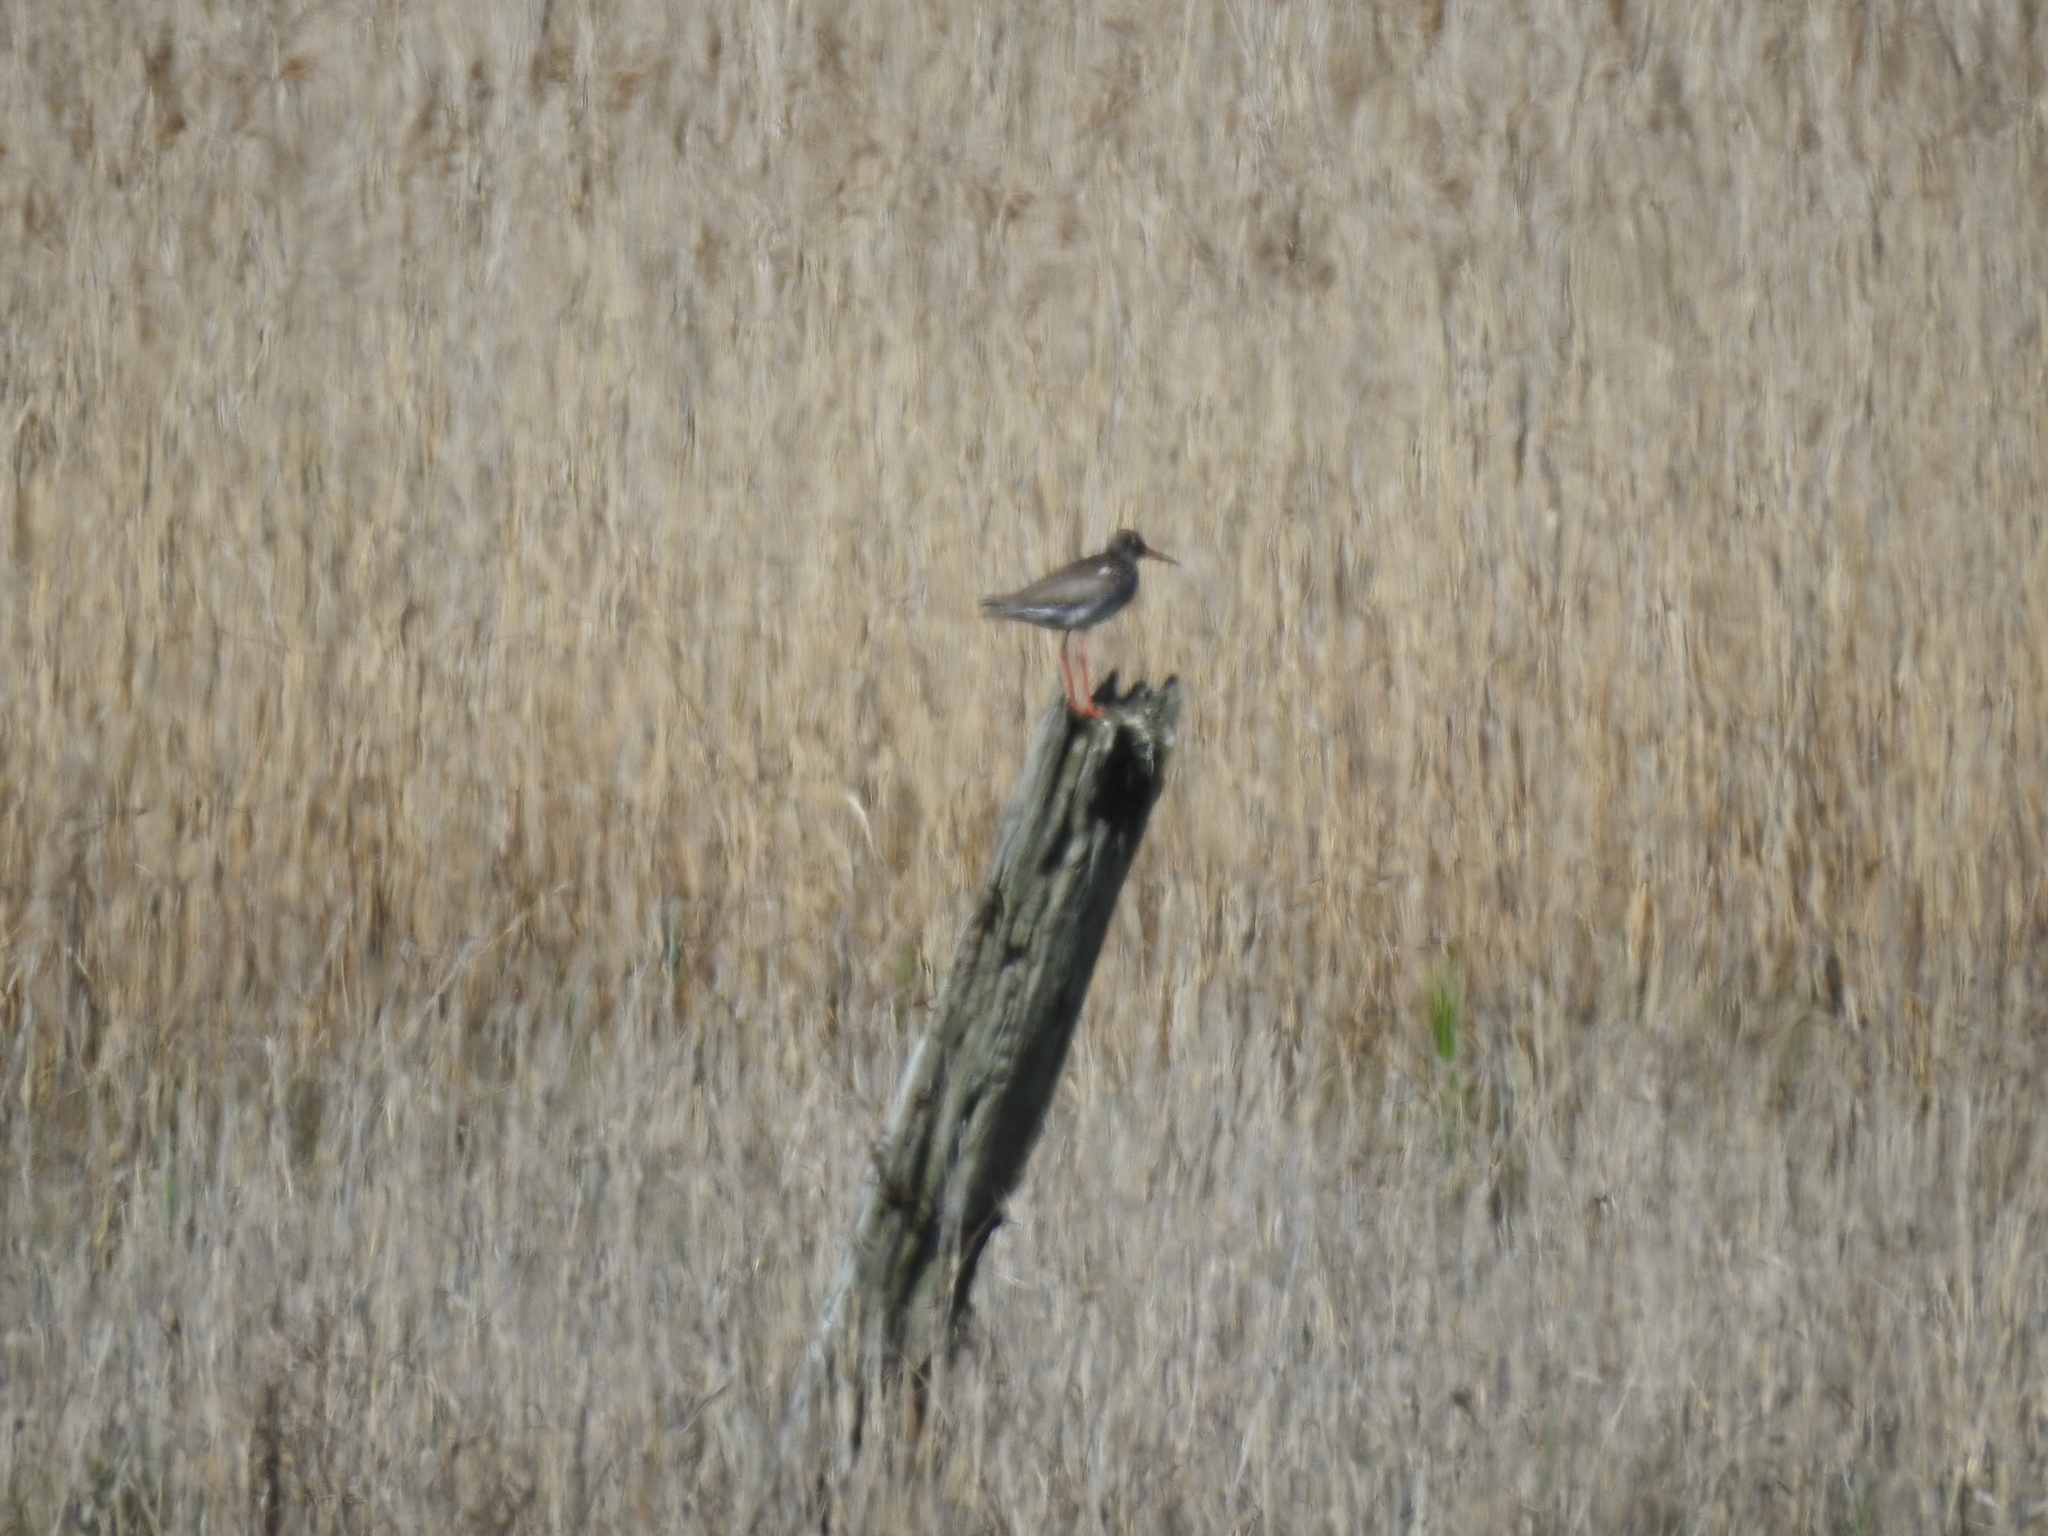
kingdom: Animalia
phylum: Chordata
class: Aves
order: Charadriiformes
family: Scolopacidae
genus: Tringa
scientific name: Tringa totanus
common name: Common redshank
